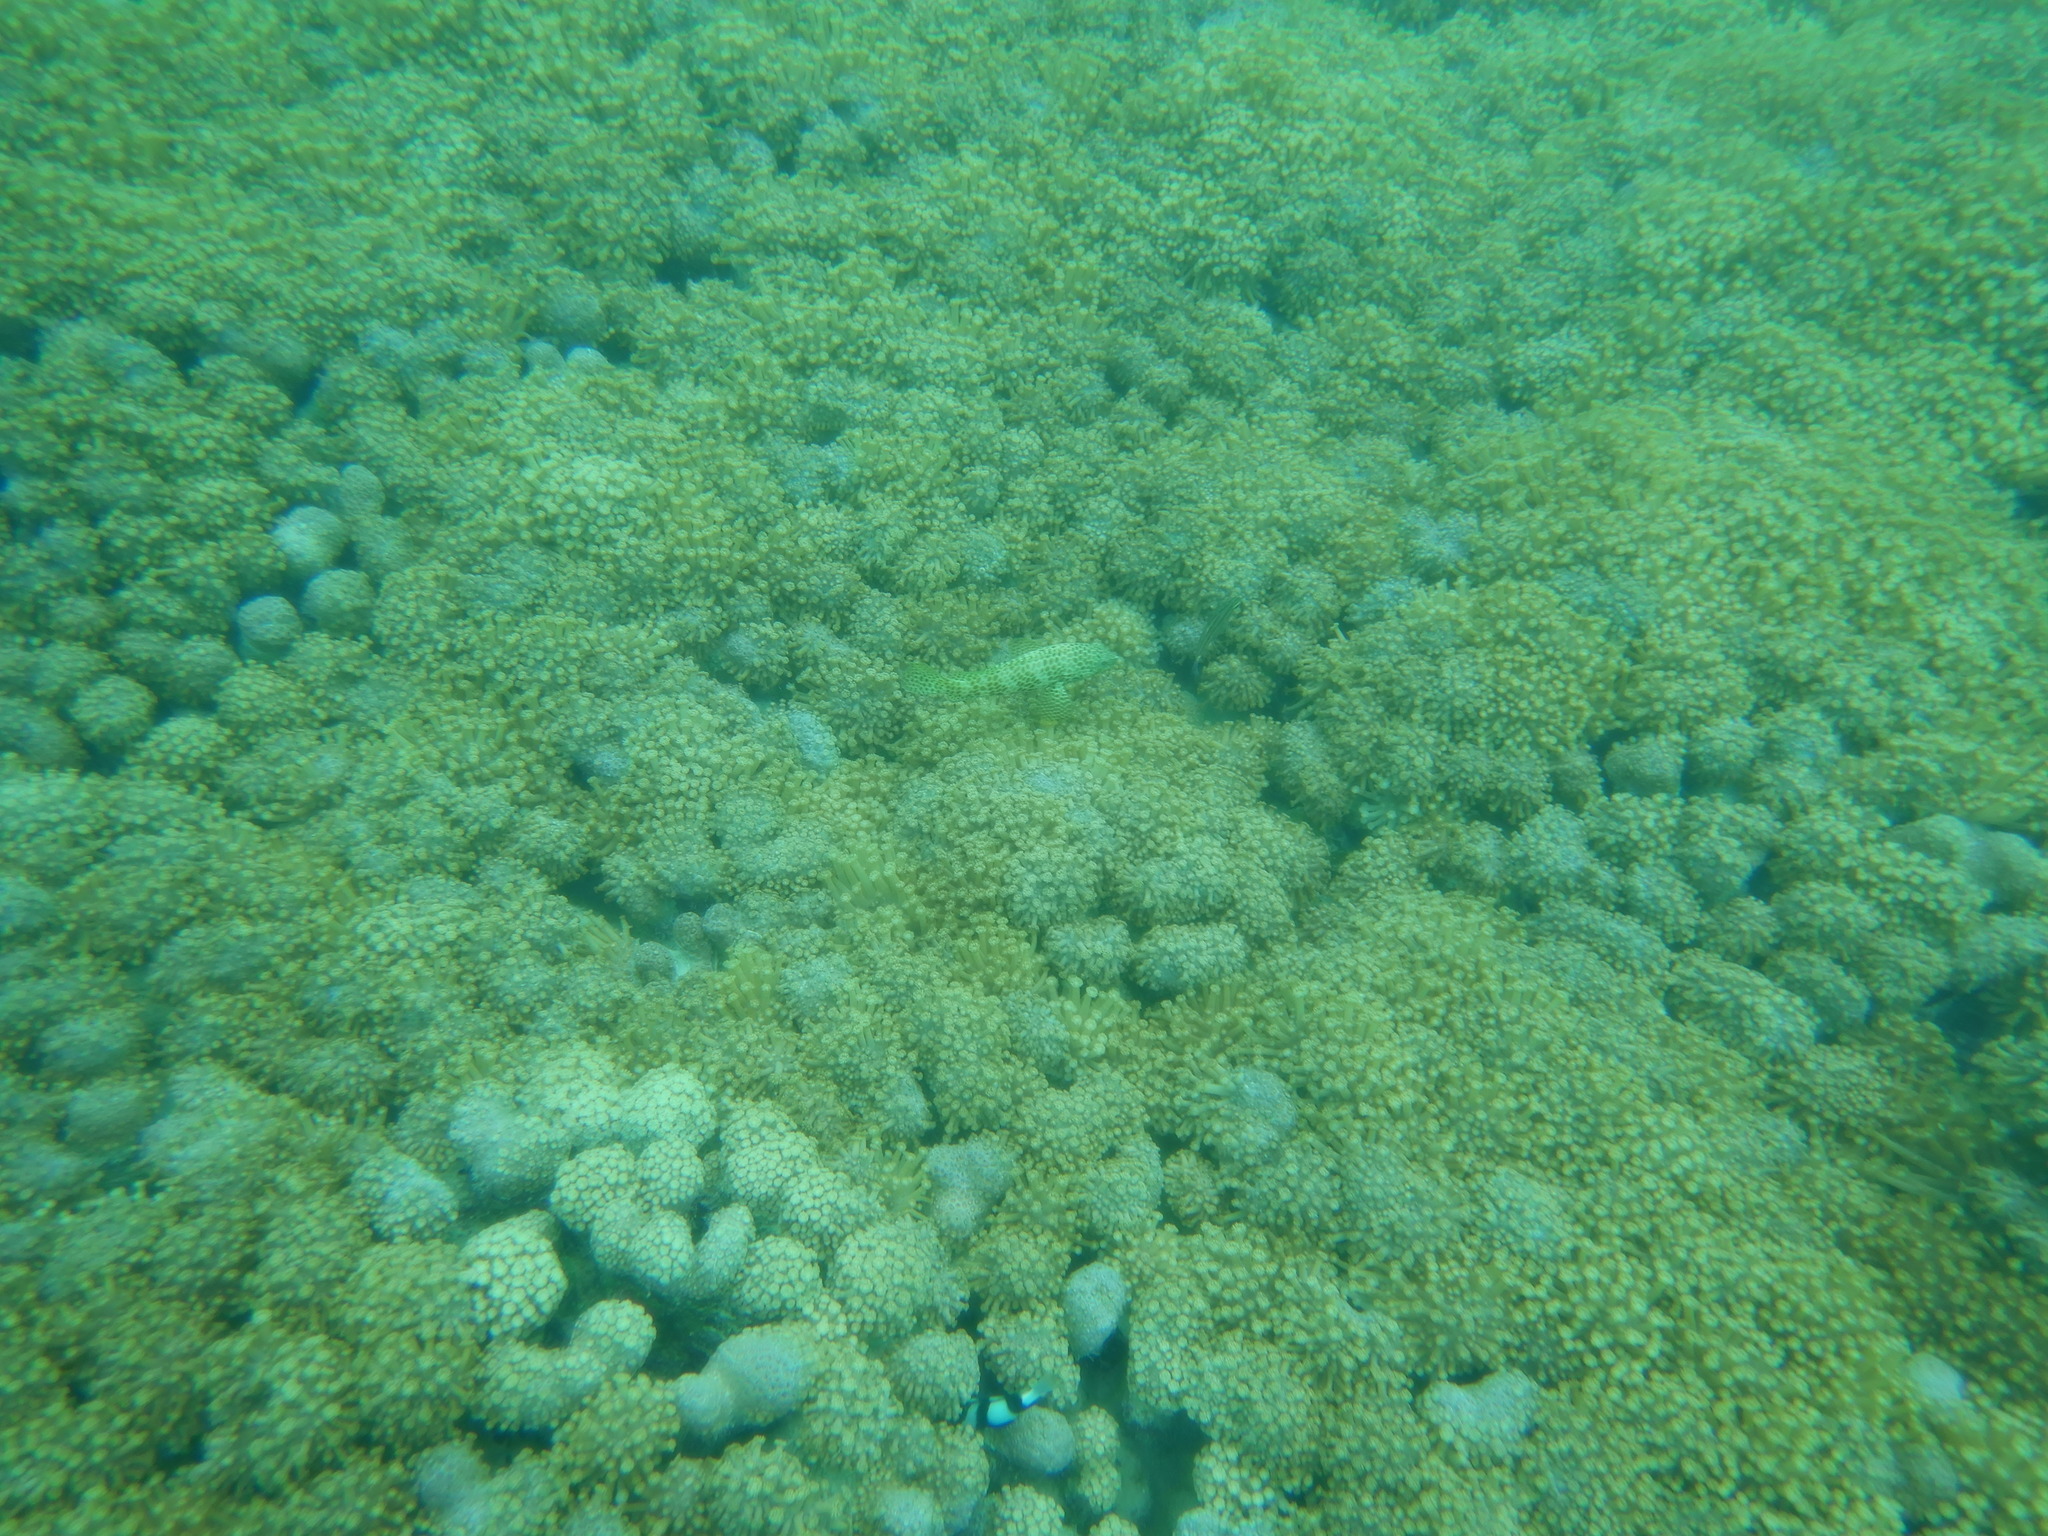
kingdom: Animalia
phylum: Chordata
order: Perciformes
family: Serranidae
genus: Epinephelus
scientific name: Epinephelus merra
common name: Honeycomb grouper
